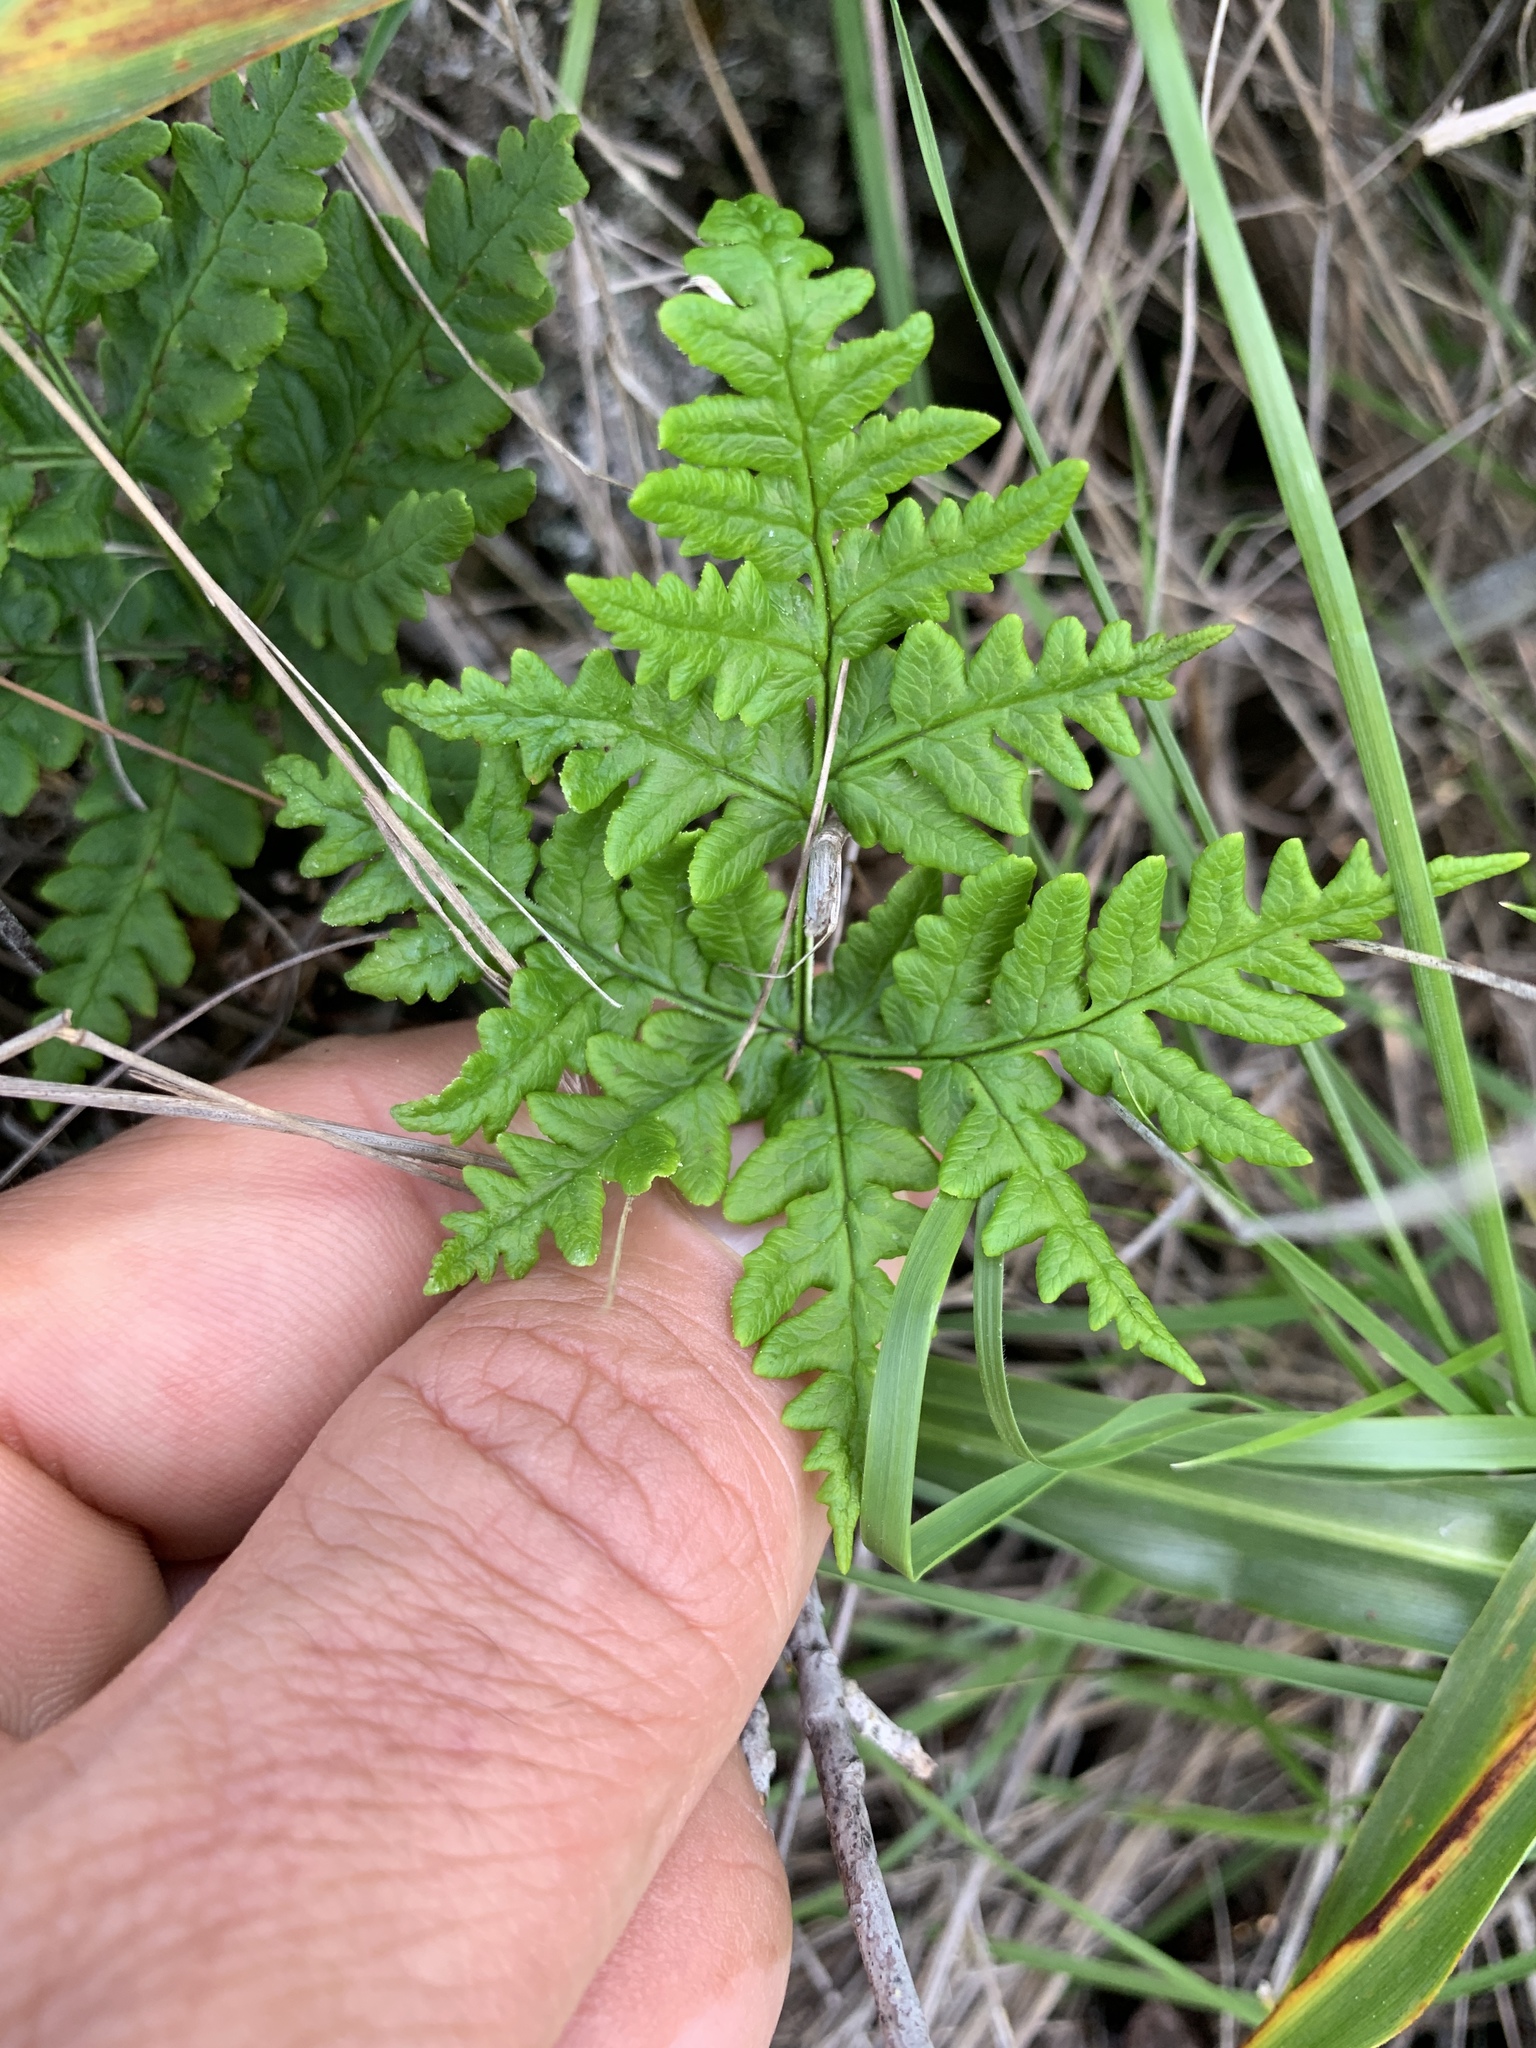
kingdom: Plantae
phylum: Tracheophyta
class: Polypodiopsida
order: Polypodiales
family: Pteridaceae
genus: Pentagramma
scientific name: Pentagramma triangularis
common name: Gold fern
